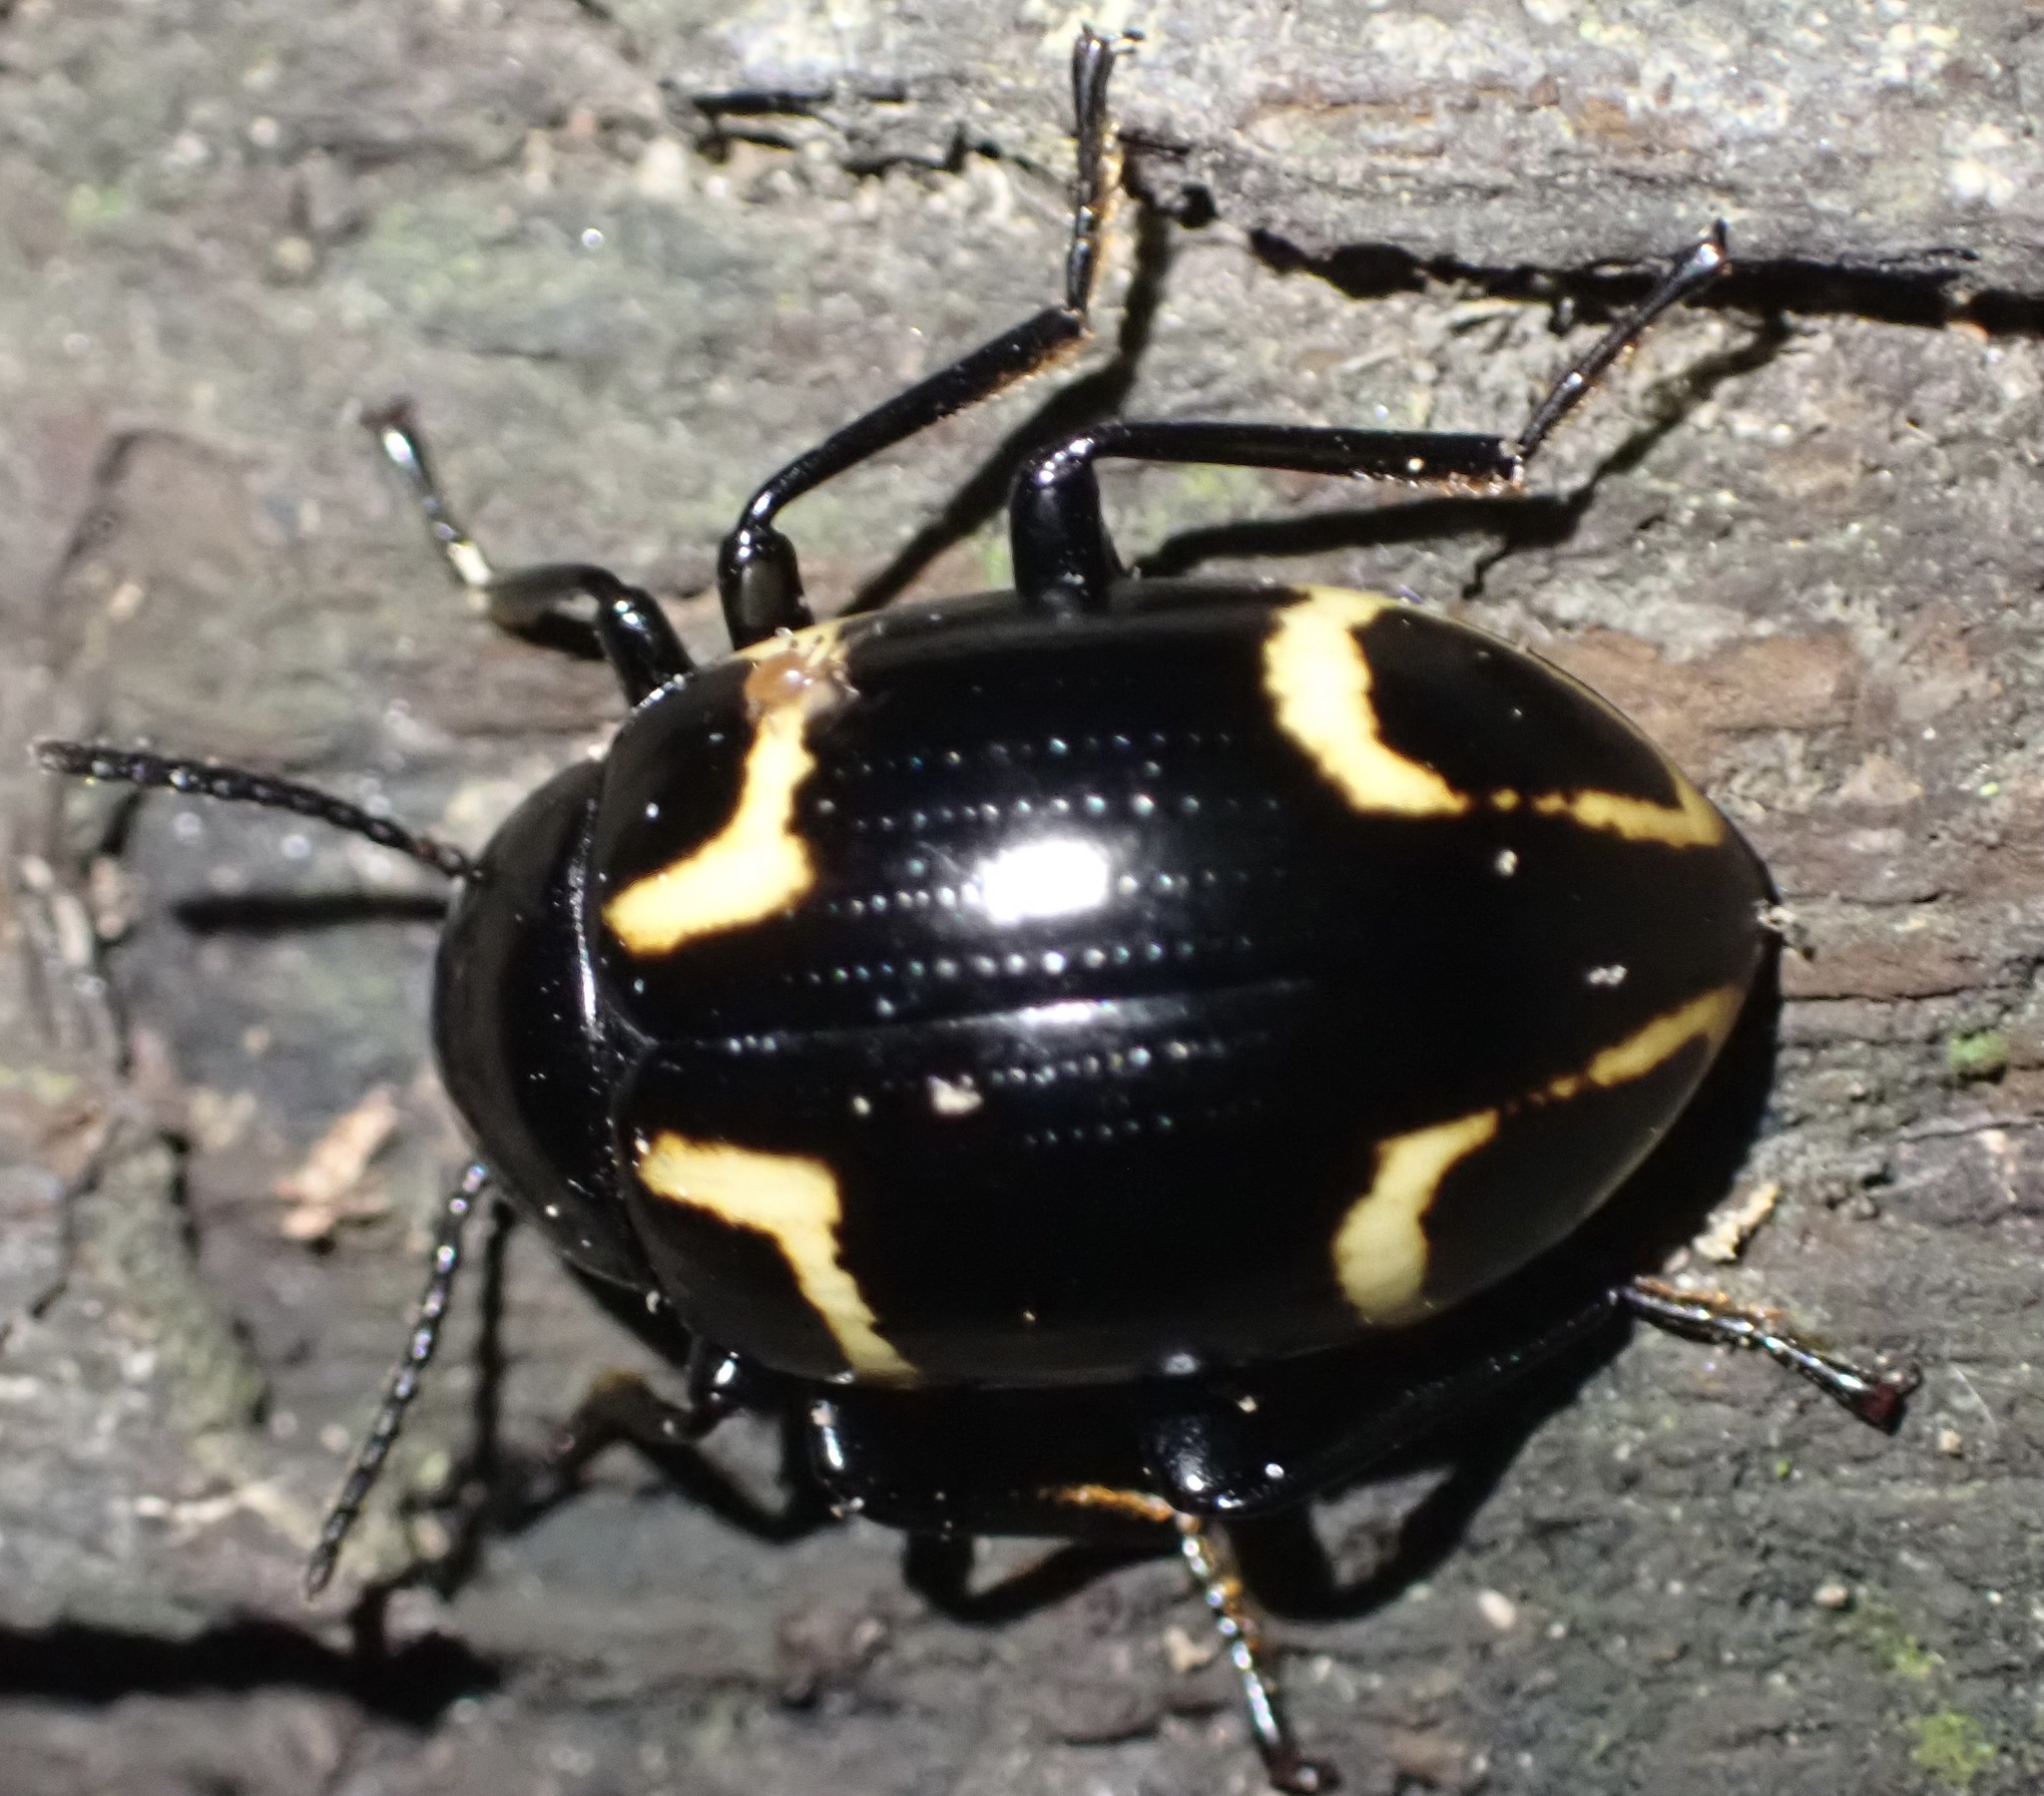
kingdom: Animalia
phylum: Arthropoda
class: Insecta
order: Coleoptera
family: Tenebrionidae
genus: Hypamarygmus
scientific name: Hypamarygmus
